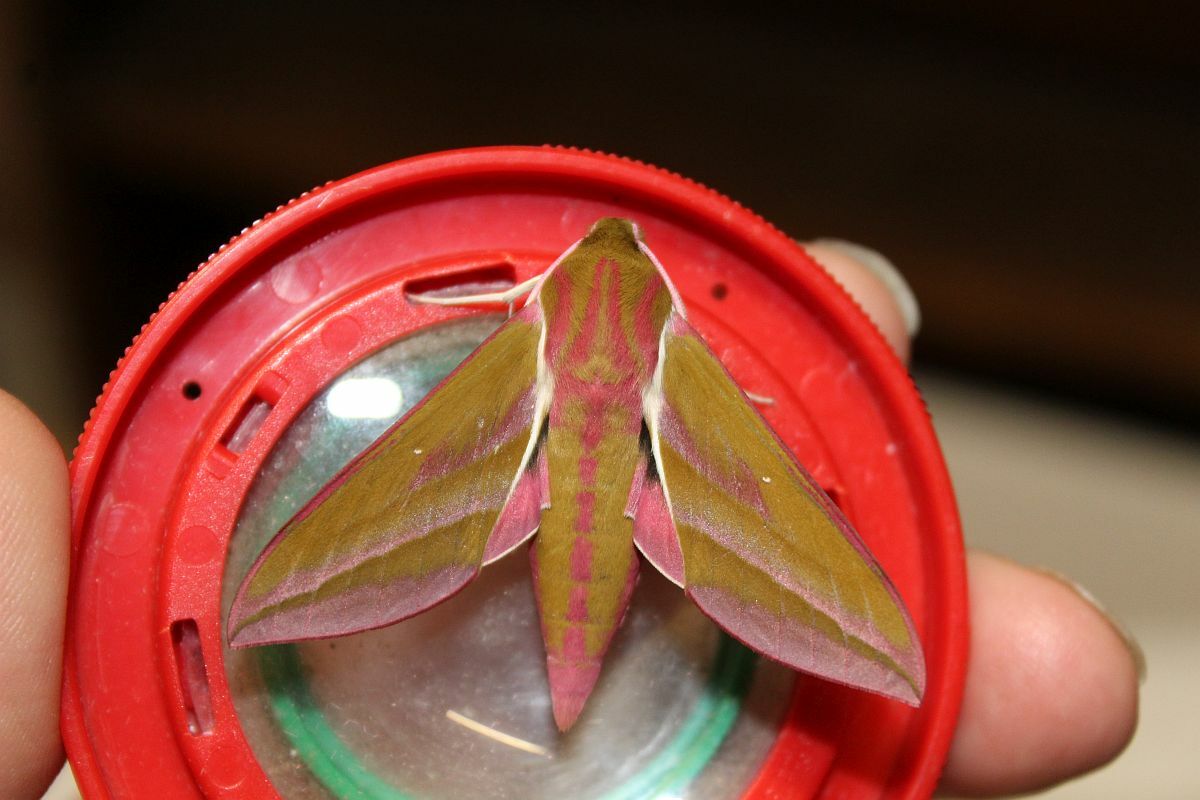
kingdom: Animalia
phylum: Arthropoda
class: Insecta
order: Lepidoptera
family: Sphingidae
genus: Deilephila
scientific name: Deilephila elpenor
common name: Elephant hawk-moth
